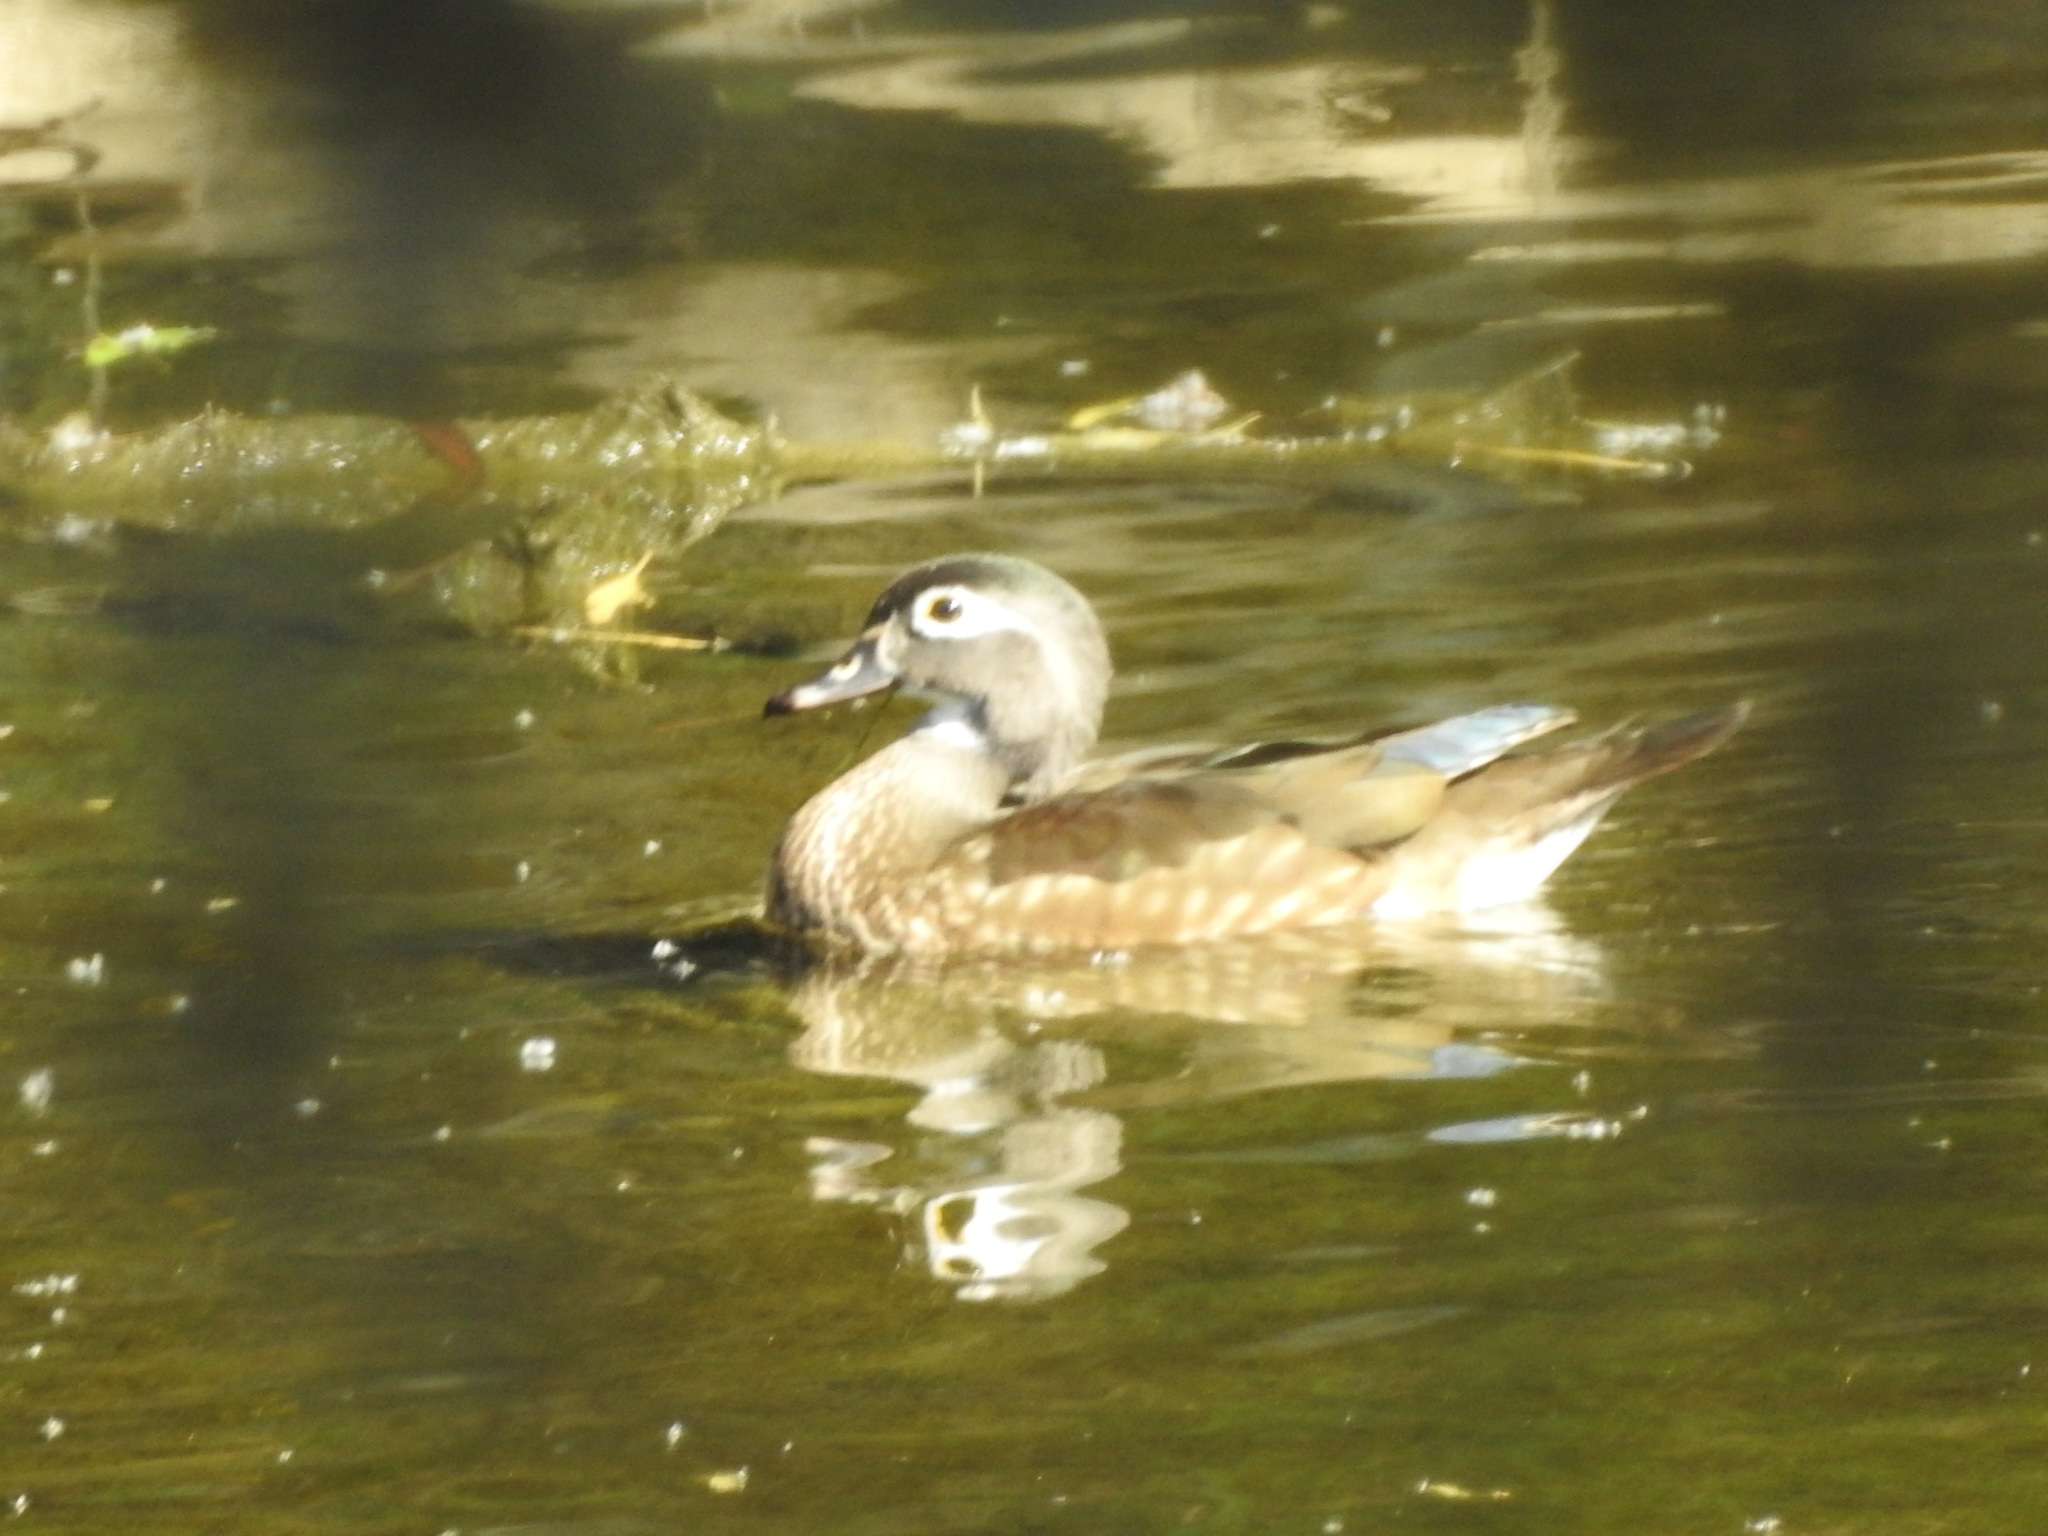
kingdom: Animalia
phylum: Chordata
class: Aves
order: Anseriformes
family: Anatidae
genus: Aix
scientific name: Aix sponsa
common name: Wood duck
